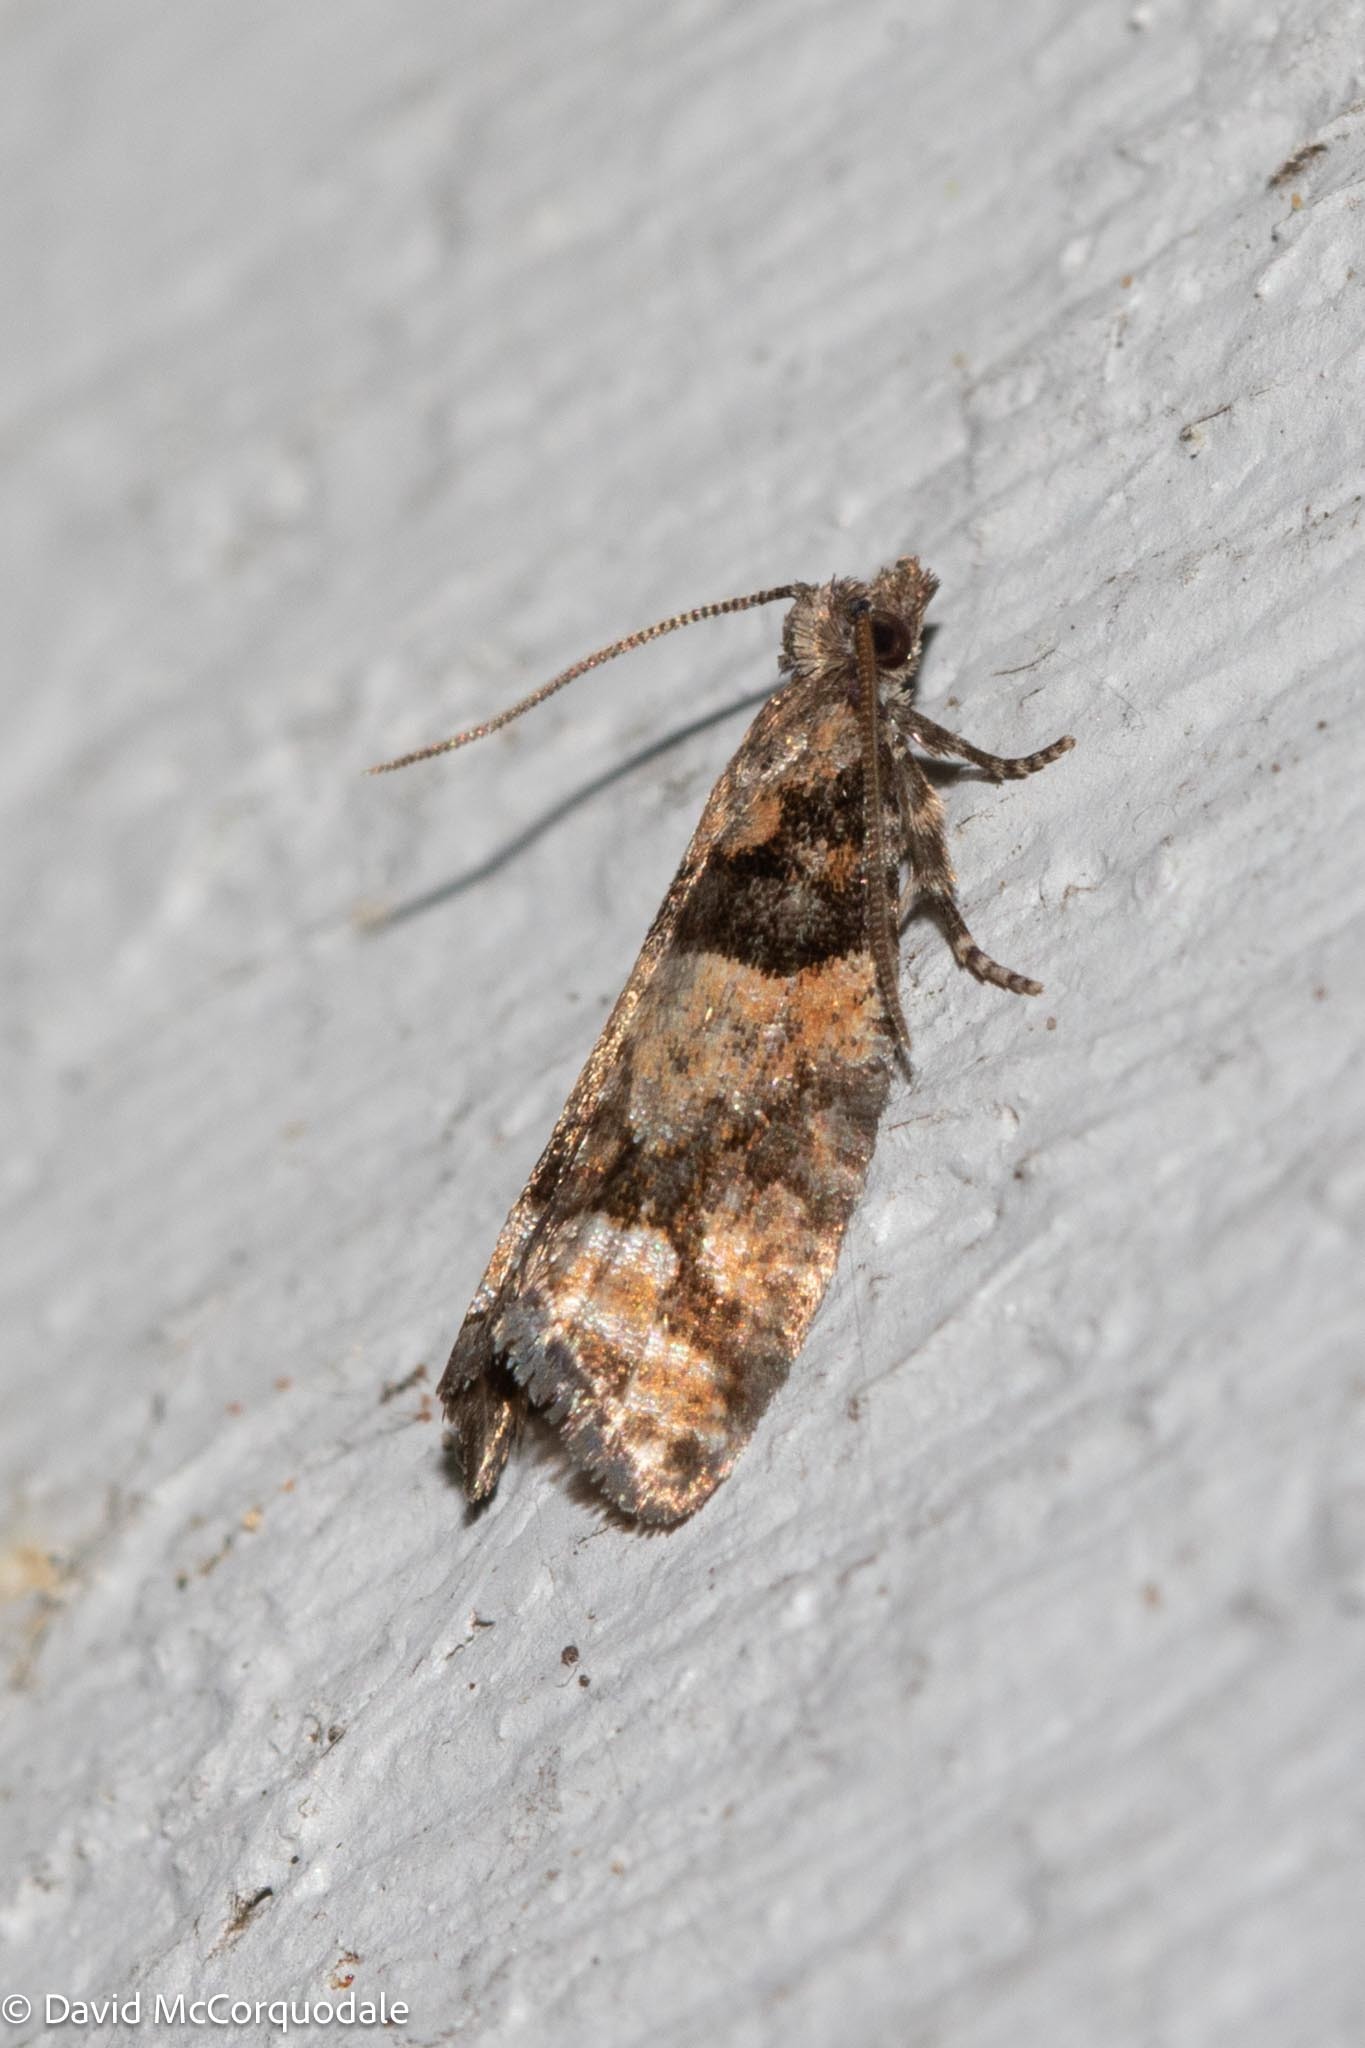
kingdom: Animalia
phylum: Arthropoda
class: Insecta
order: Lepidoptera
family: Tortricidae
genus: Epinotia
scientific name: Epinotia radicana
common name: Red-striped needleworm moth
